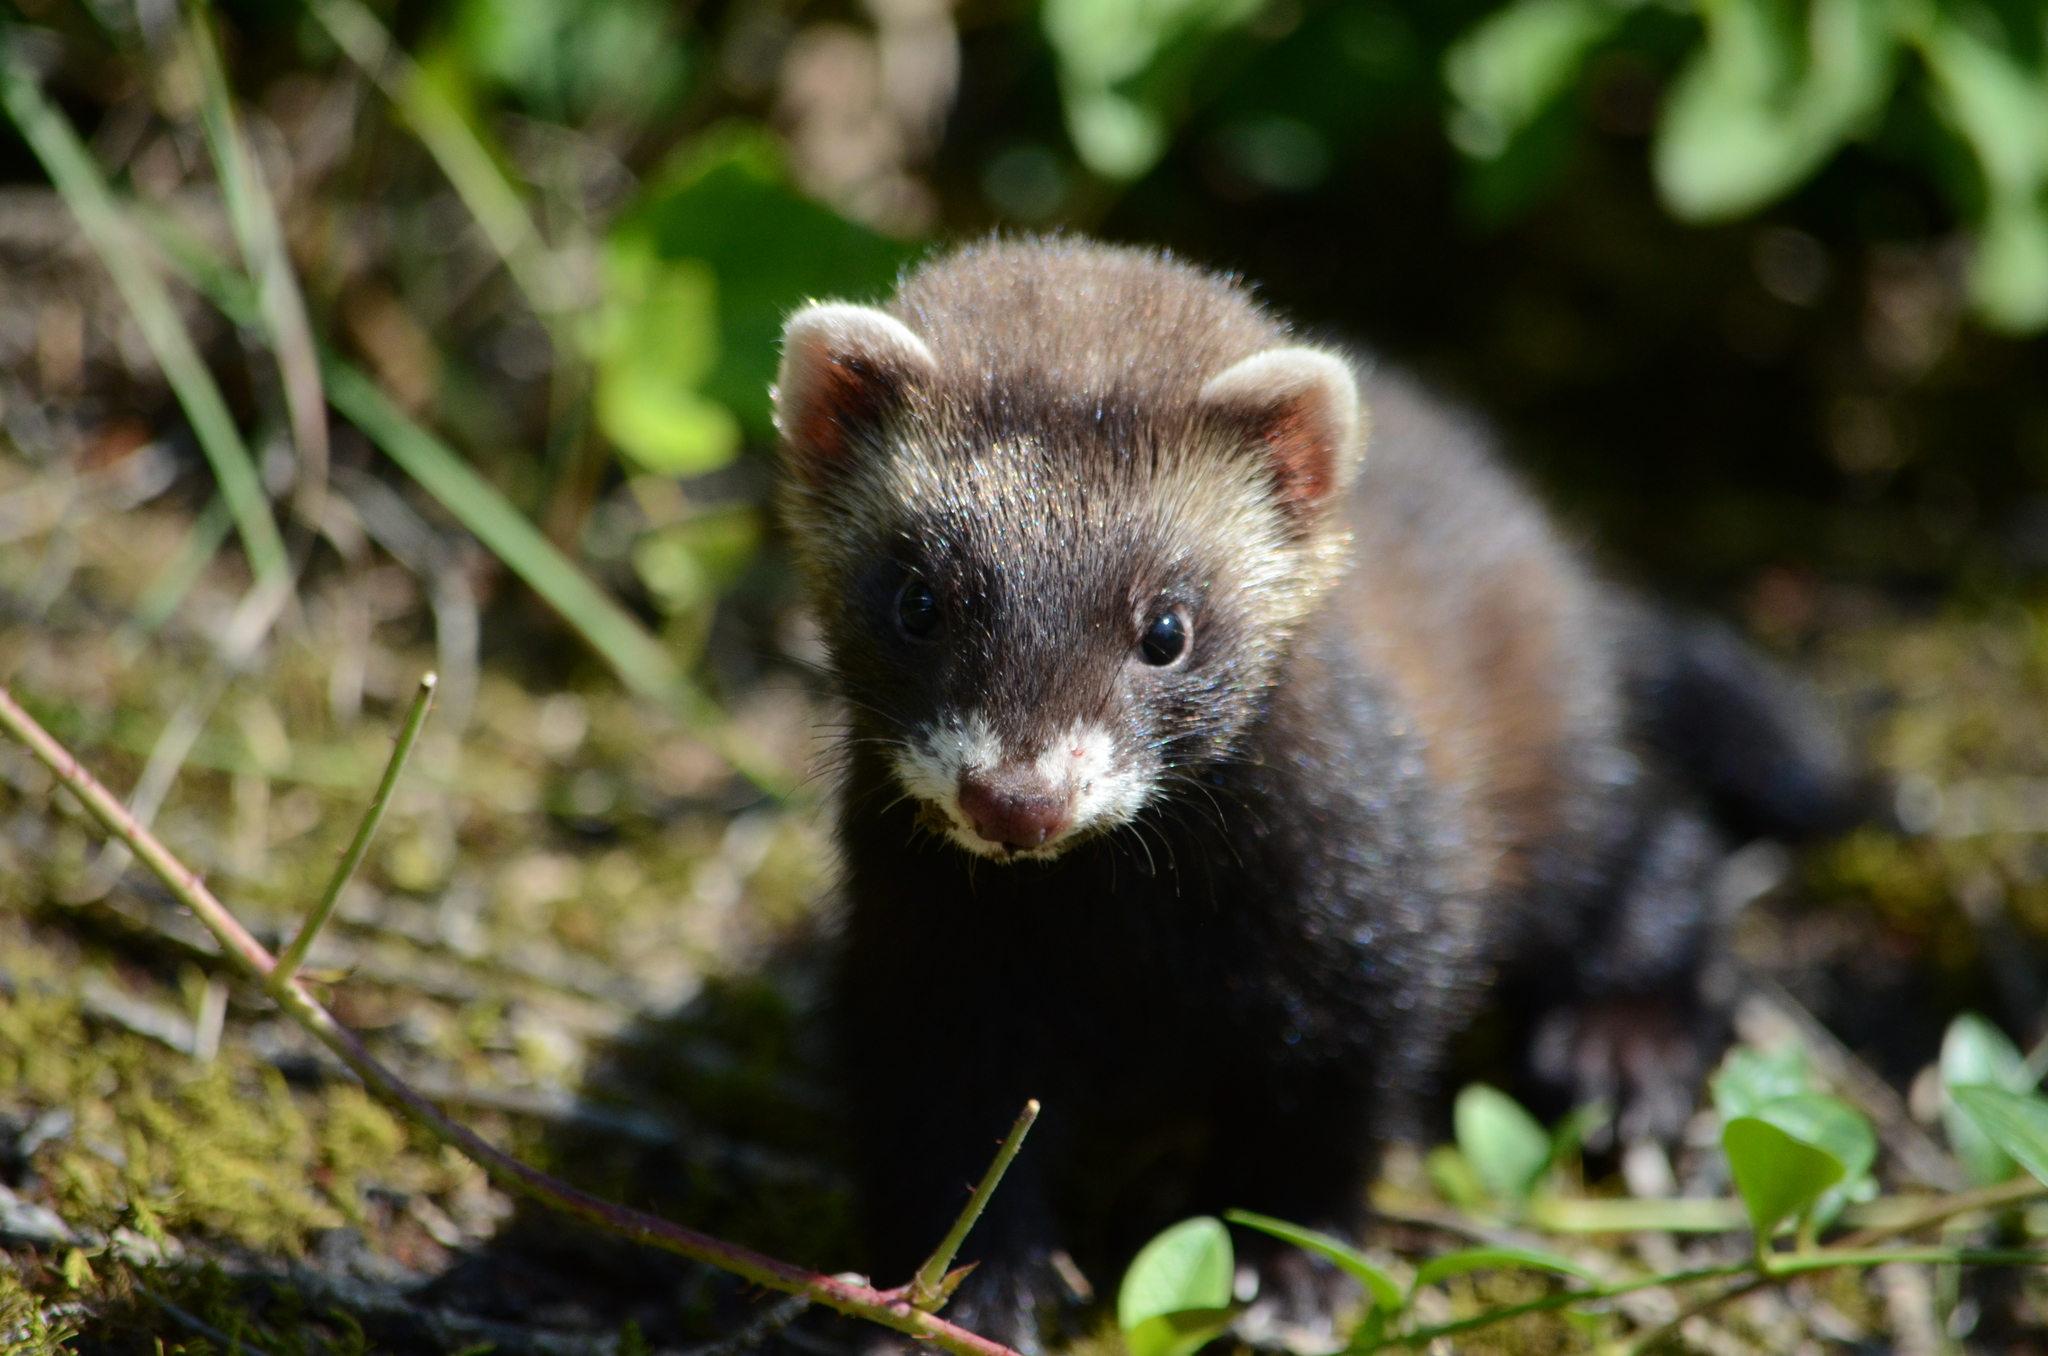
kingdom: Animalia
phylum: Chordata
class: Mammalia
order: Carnivora
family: Mustelidae
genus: Mustela
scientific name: Mustela putorius
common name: European polecat
